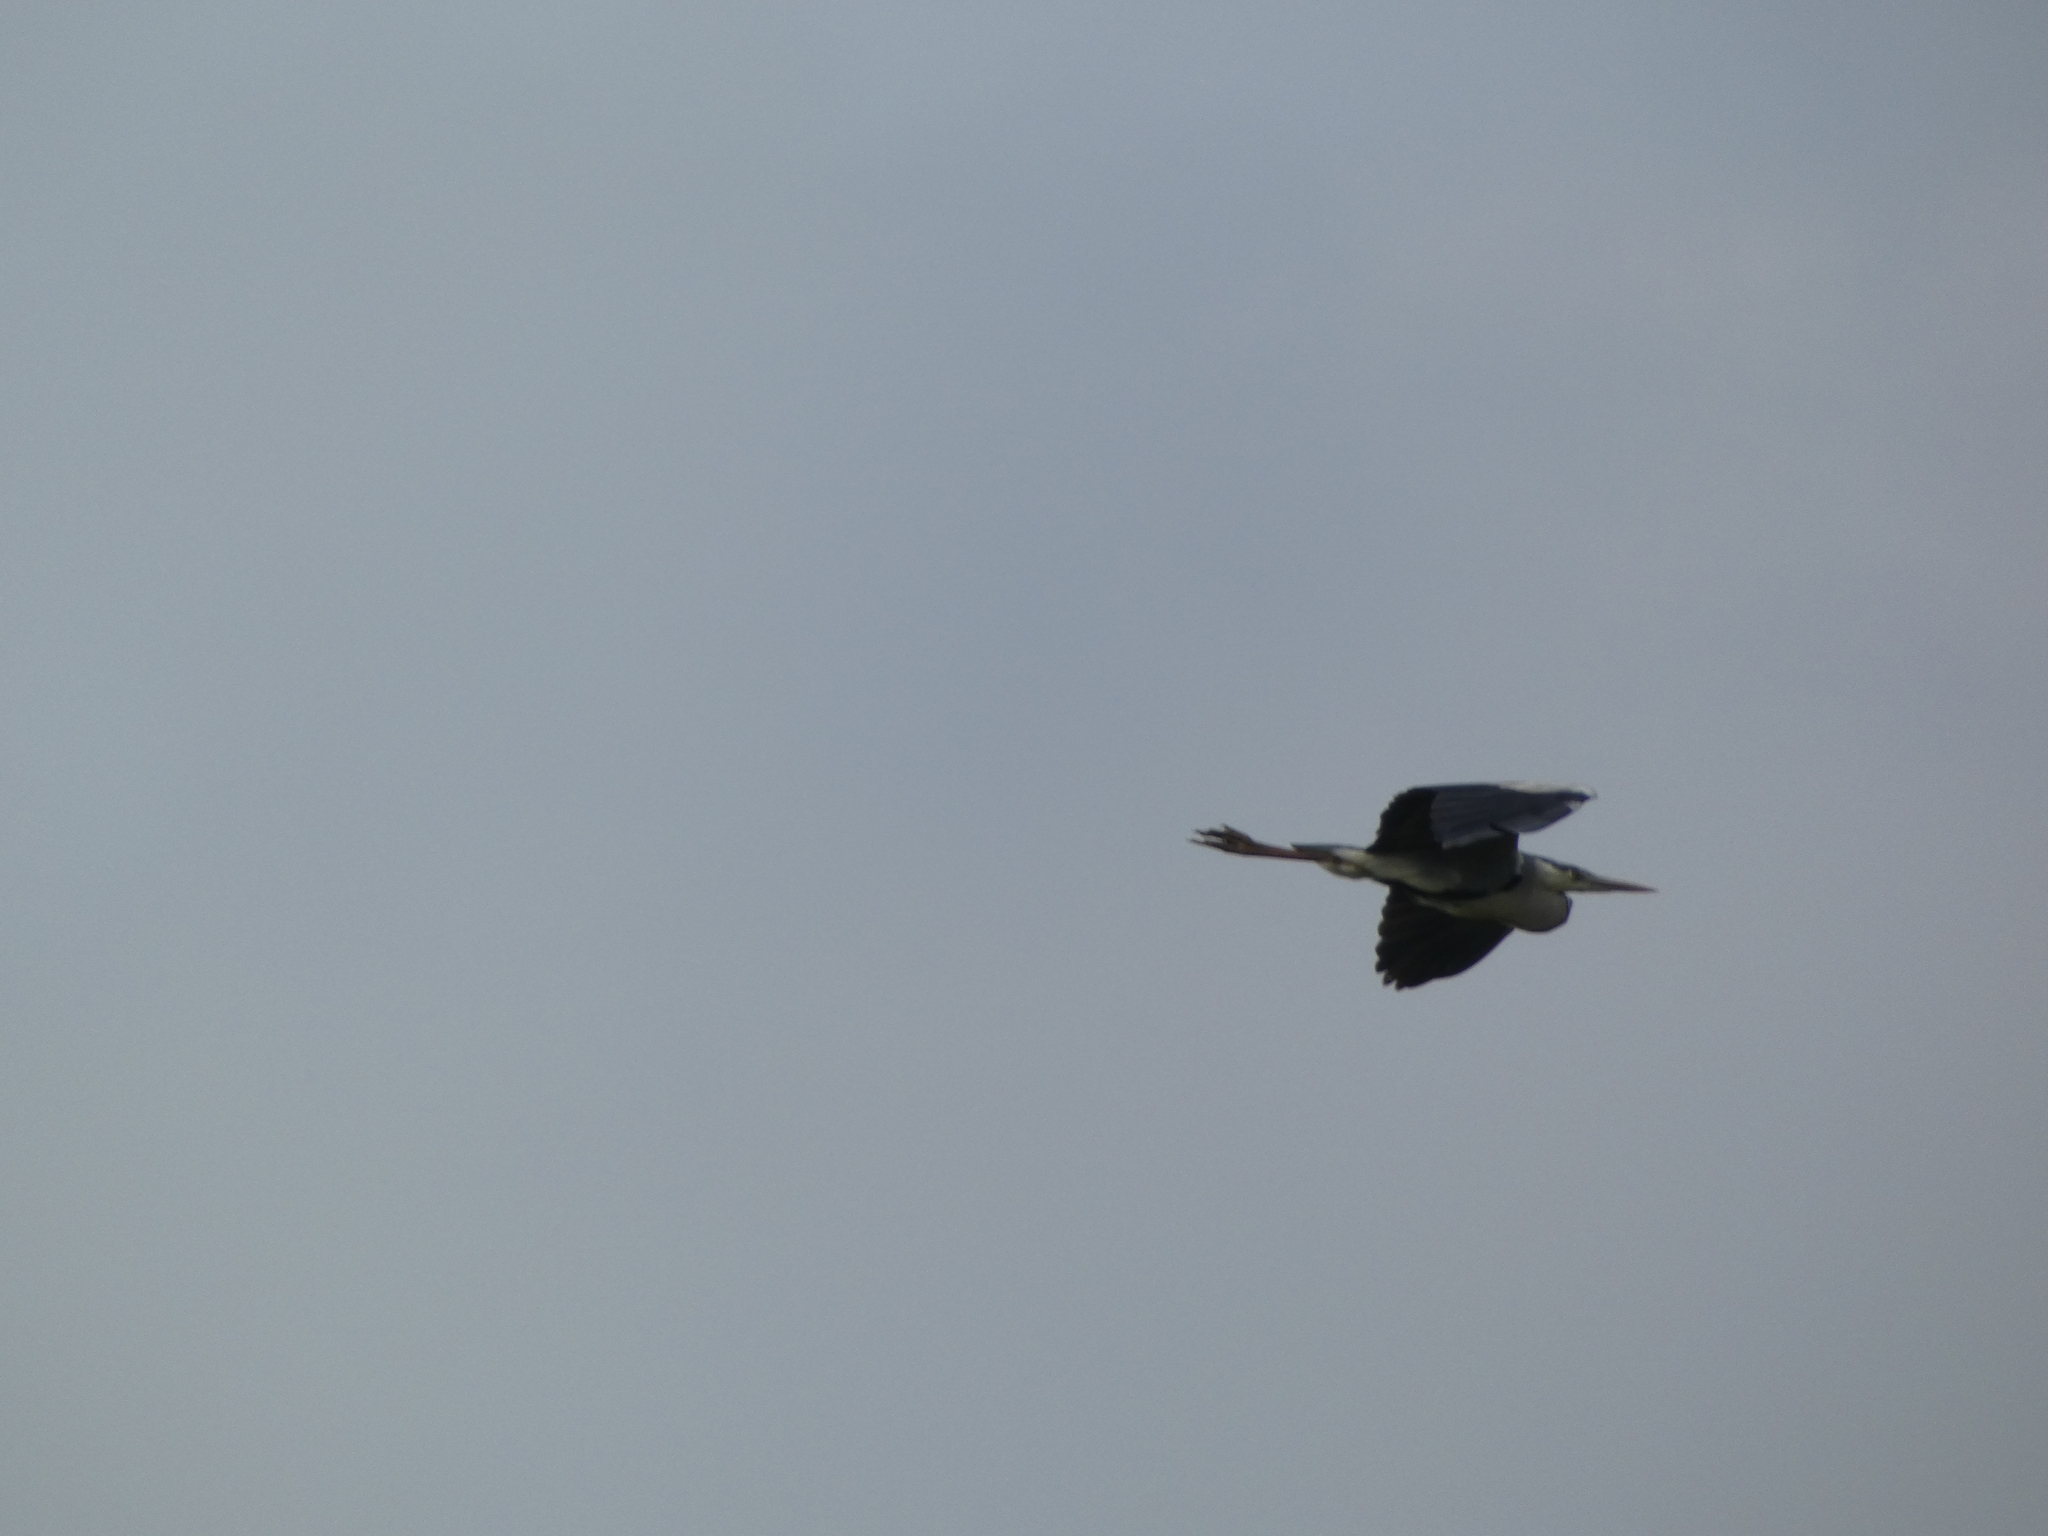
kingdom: Animalia
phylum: Chordata
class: Aves
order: Pelecaniformes
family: Ardeidae
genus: Ardea
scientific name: Ardea cinerea
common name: Grey heron
